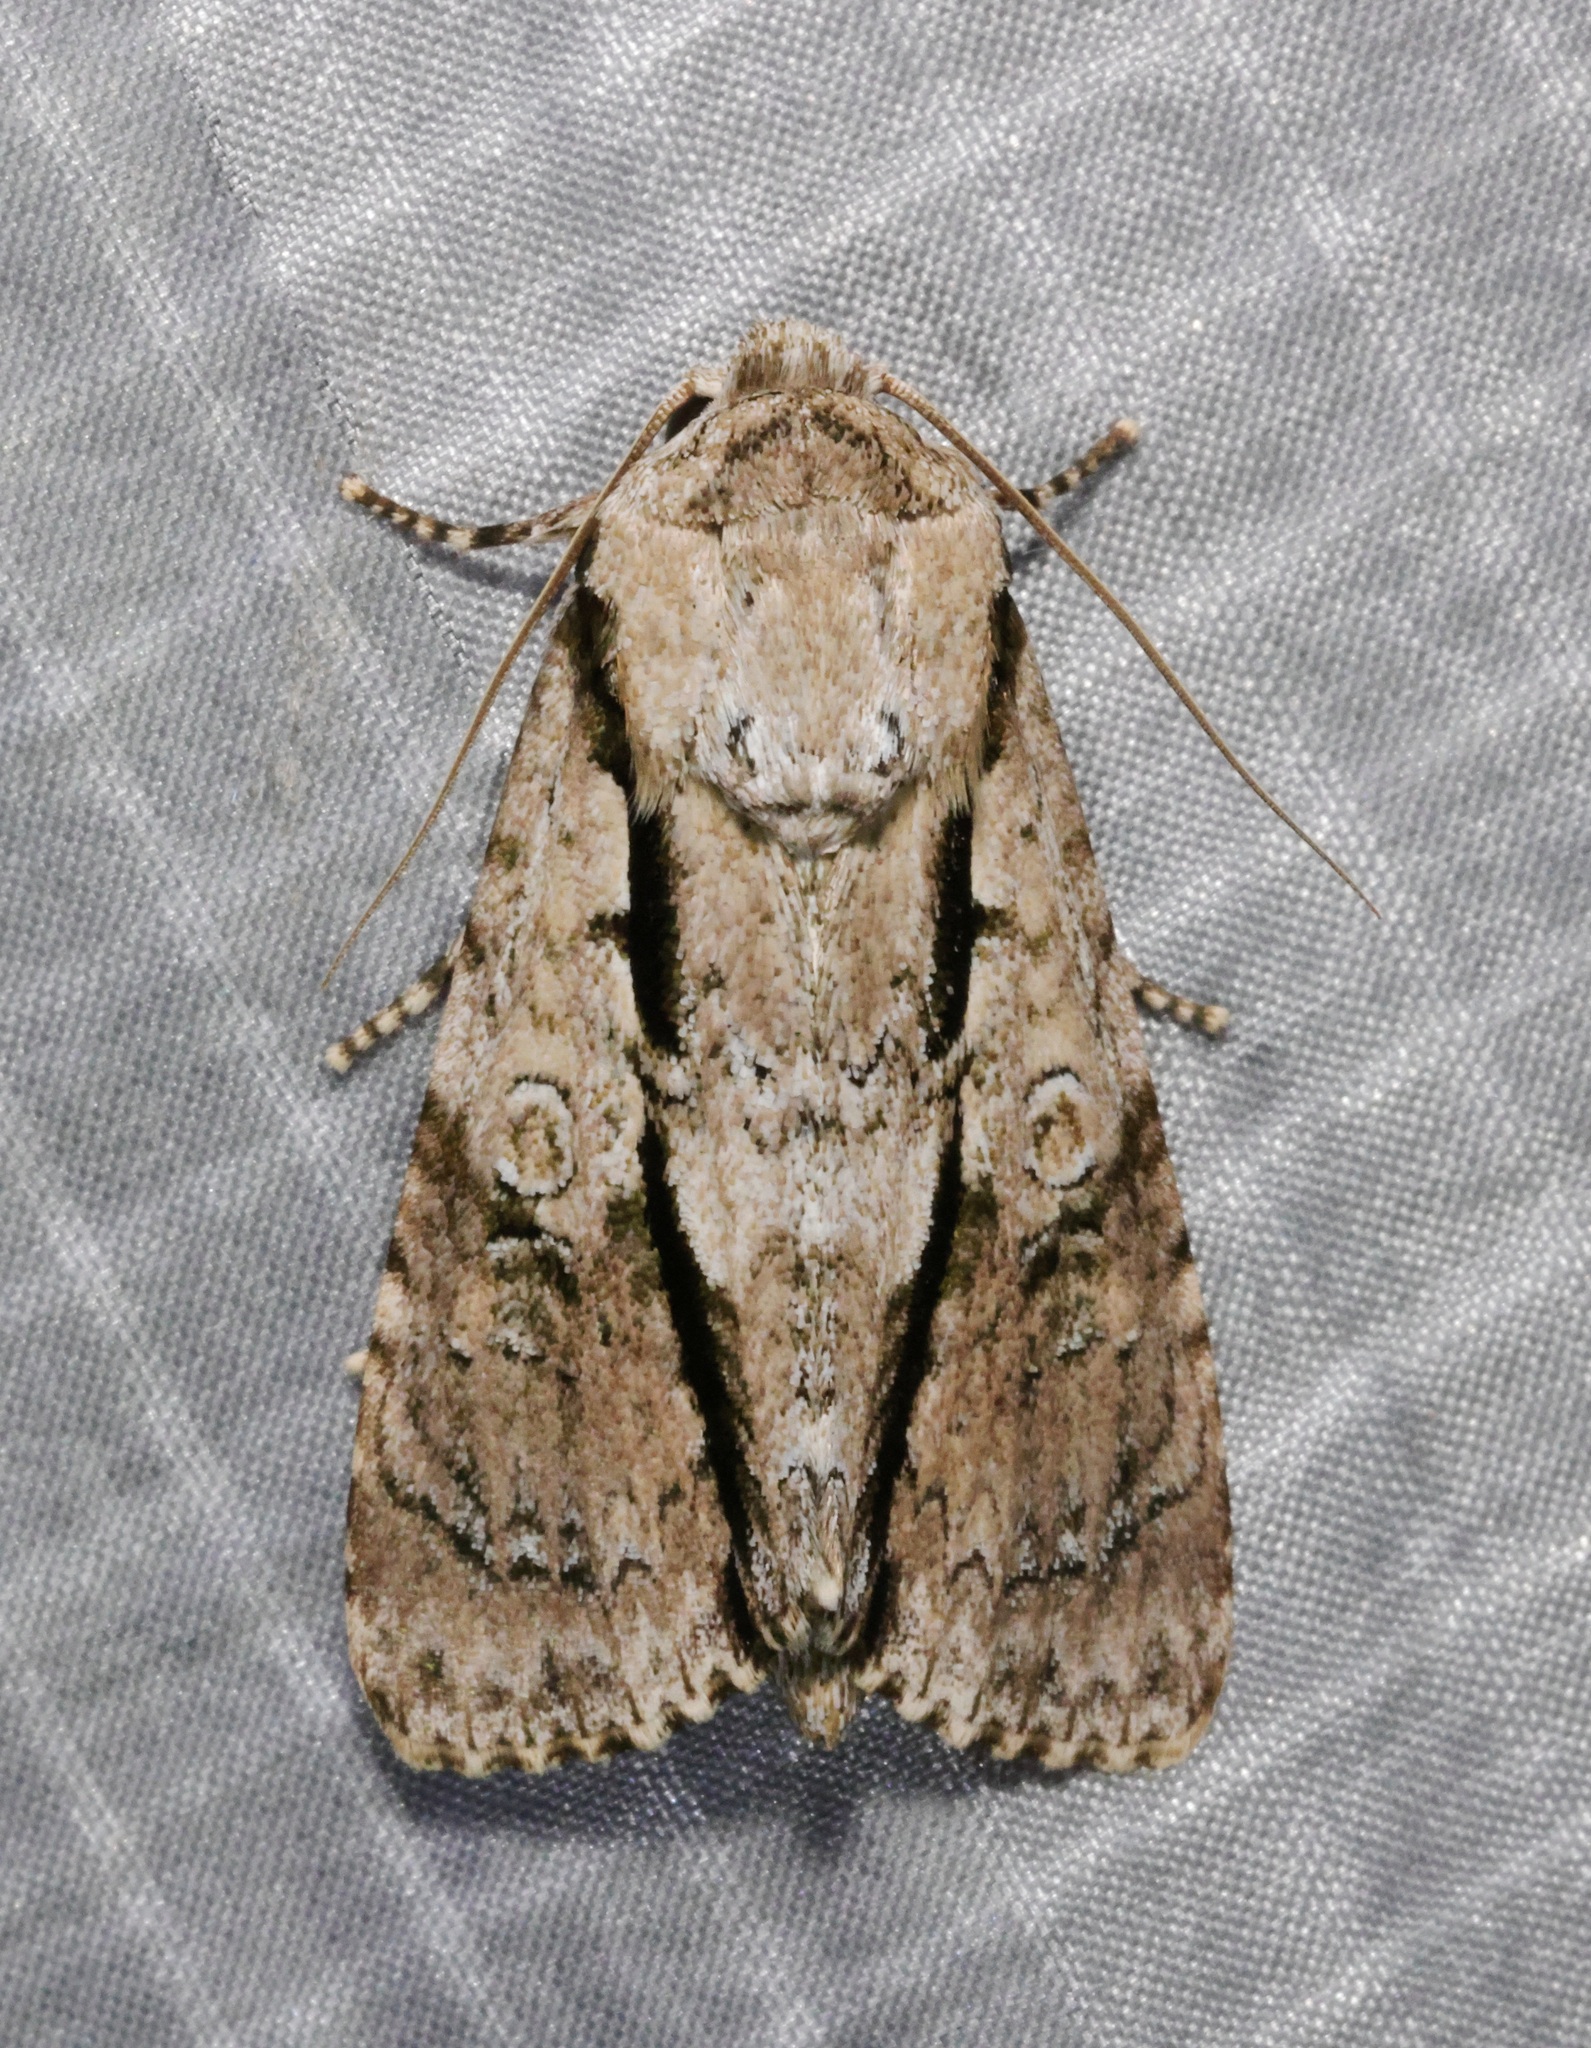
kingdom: Animalia
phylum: Arthropoda
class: Insecta
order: Lepidoptera
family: Noctuidae
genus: Fascionycta
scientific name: Fascionycta fasciata
